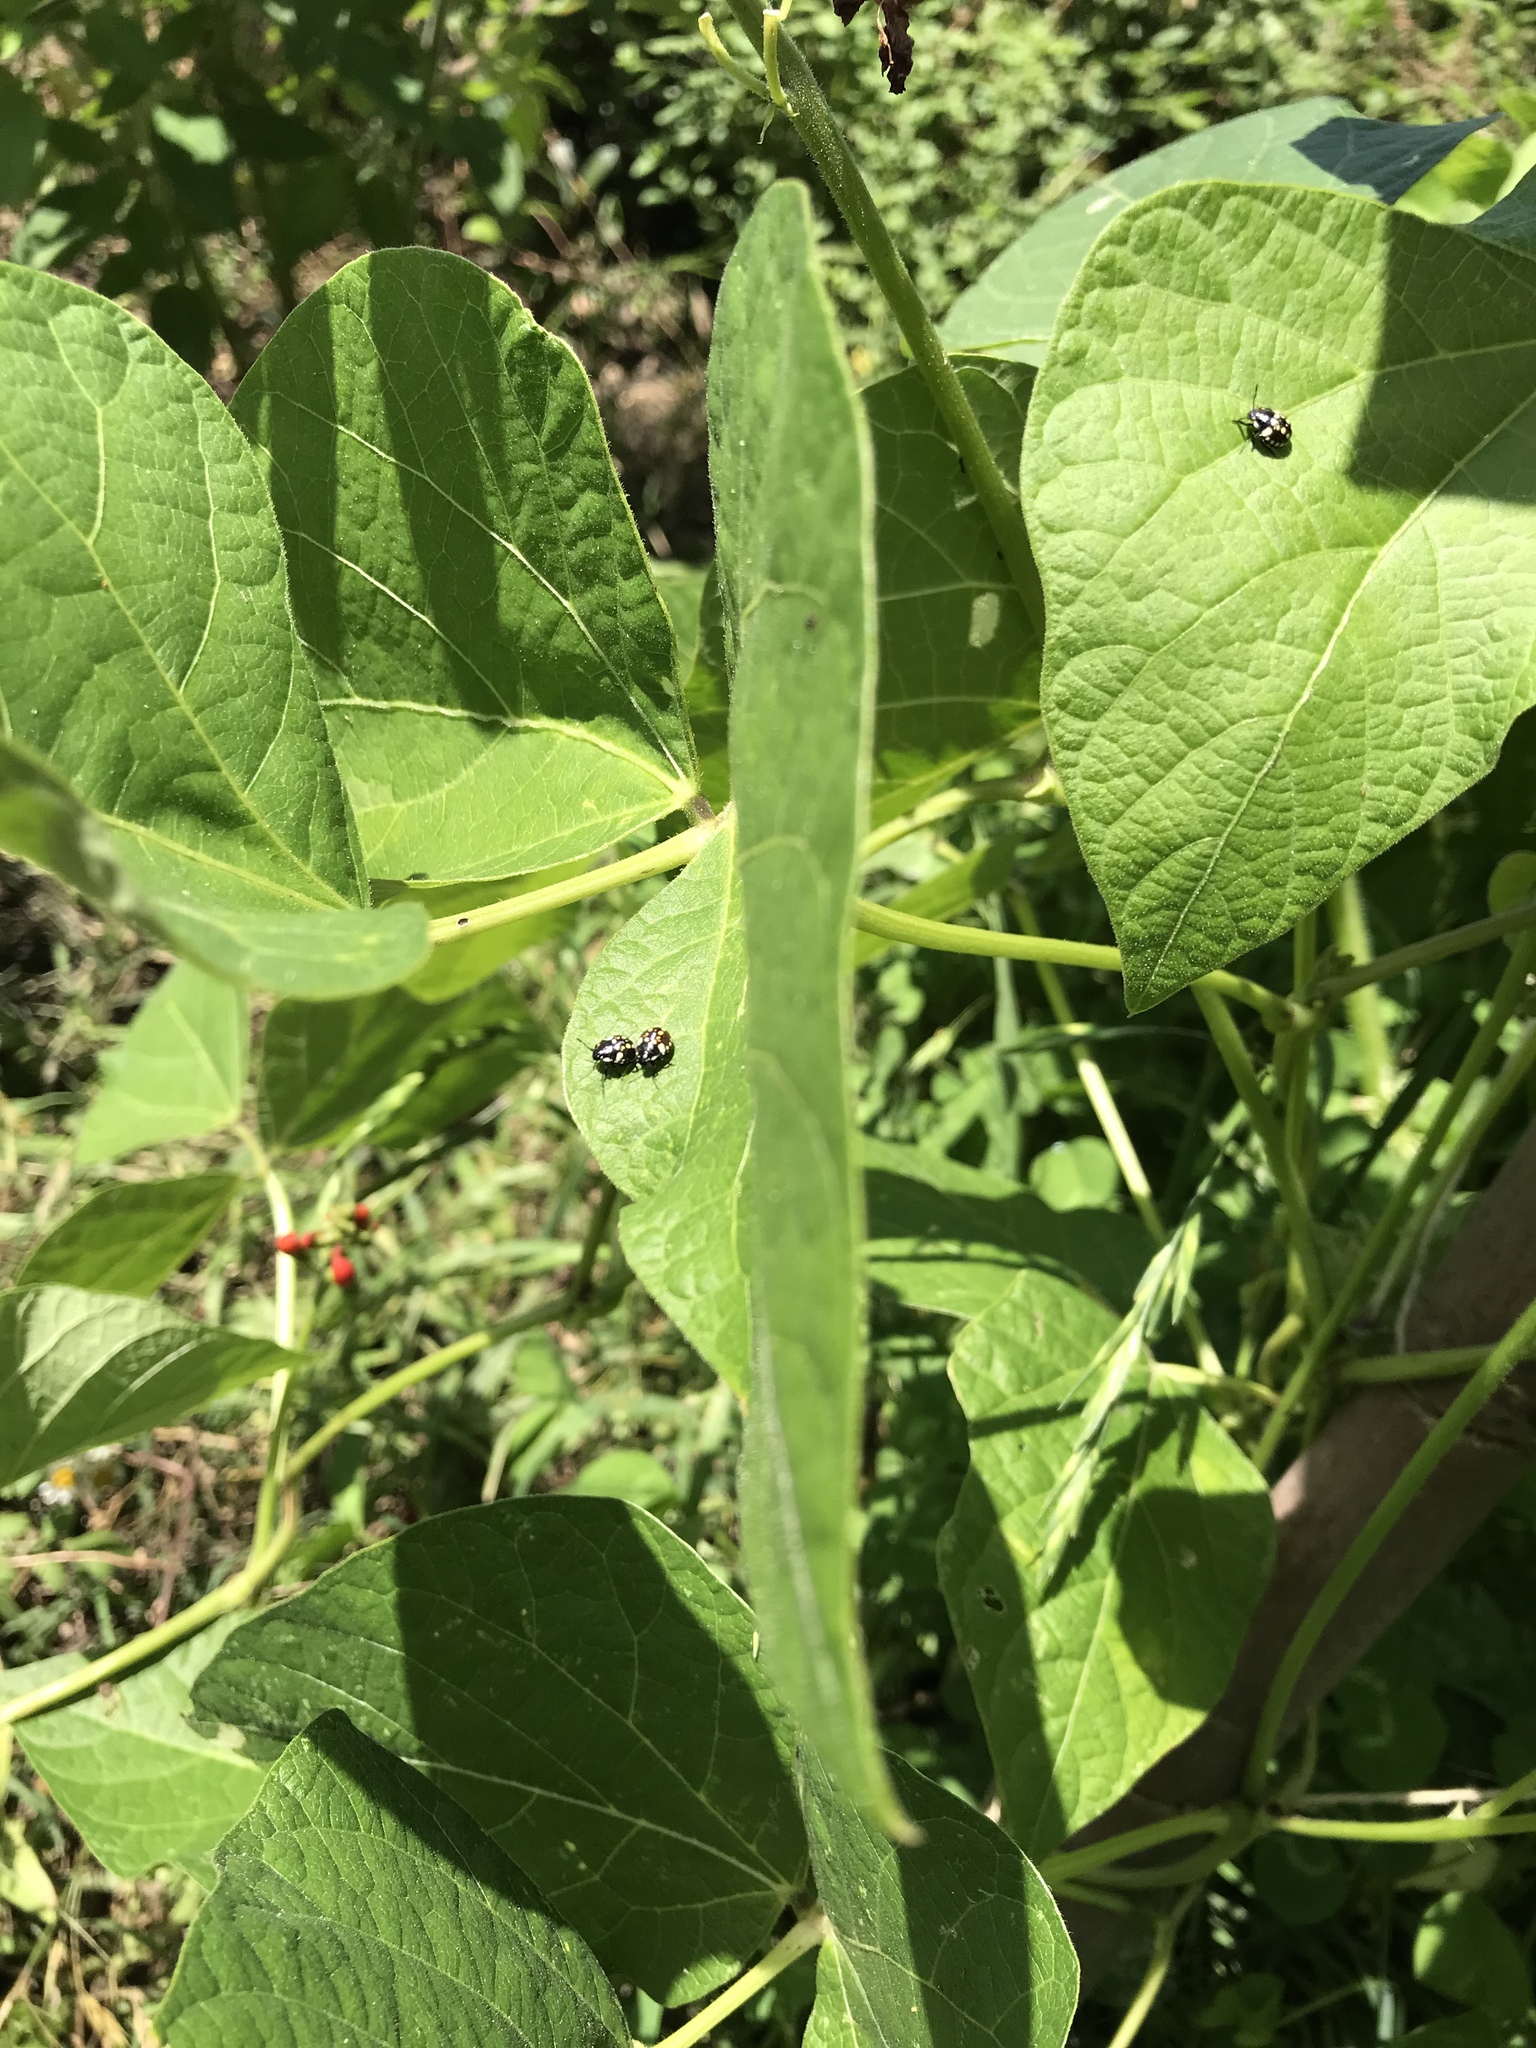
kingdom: Animalia
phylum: Arthropoda
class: Insecta
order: Hemiptera
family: Pentatomidae
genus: Nezara
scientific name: Nezara viridula
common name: Southern green stink bug
